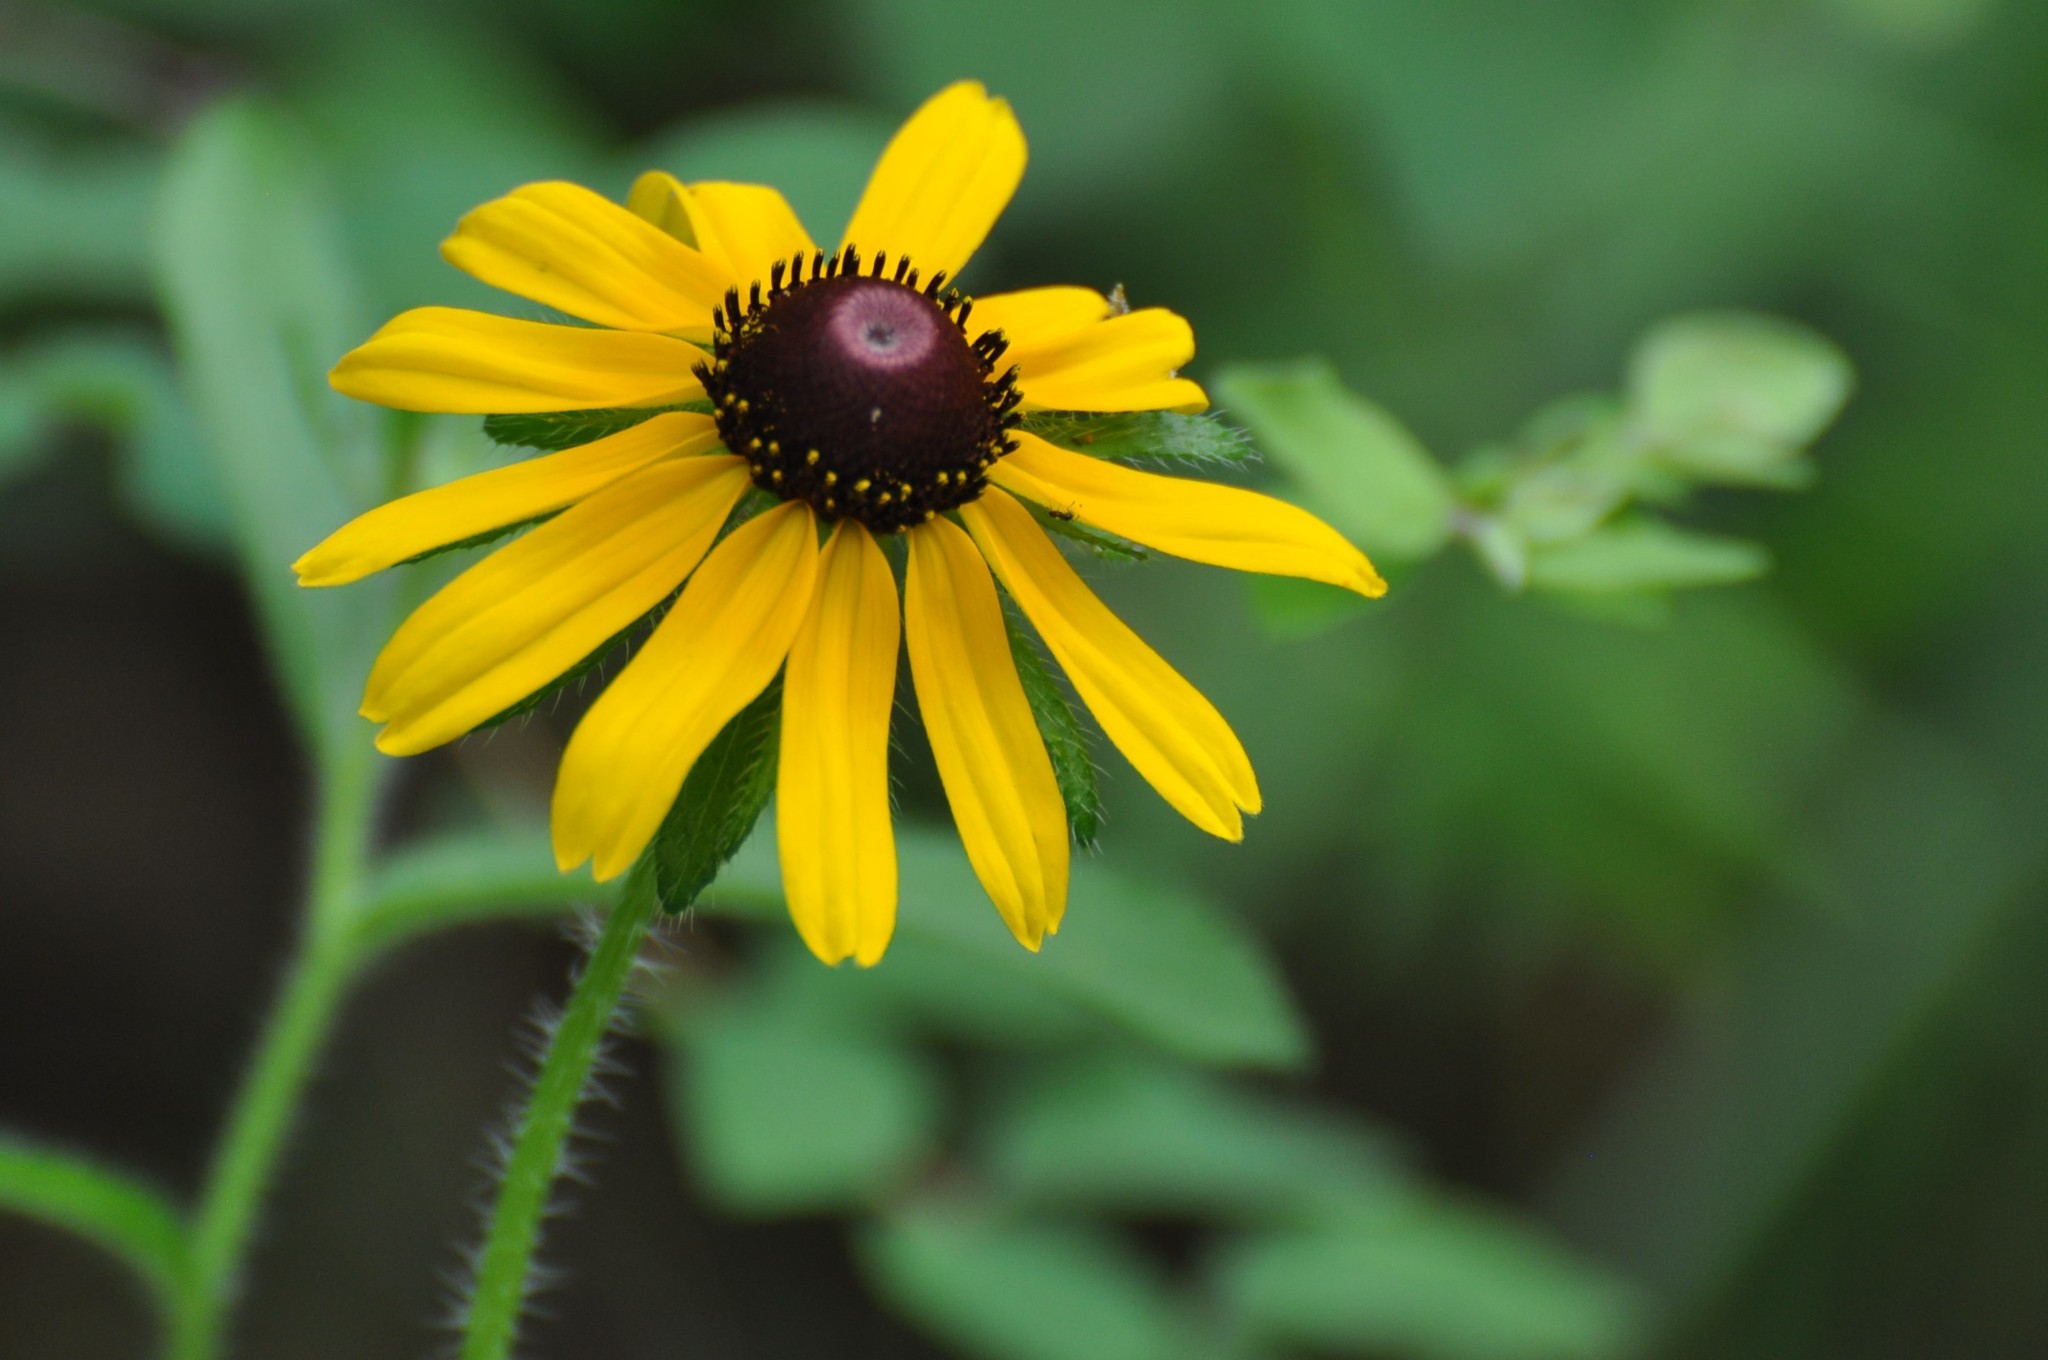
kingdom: Plantae
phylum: Tracheophyta
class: Magnoliopsida
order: Asterales
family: Asteraceae
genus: Rudbeckia
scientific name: Rudbeckia hirta
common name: Black-eyed-susan
